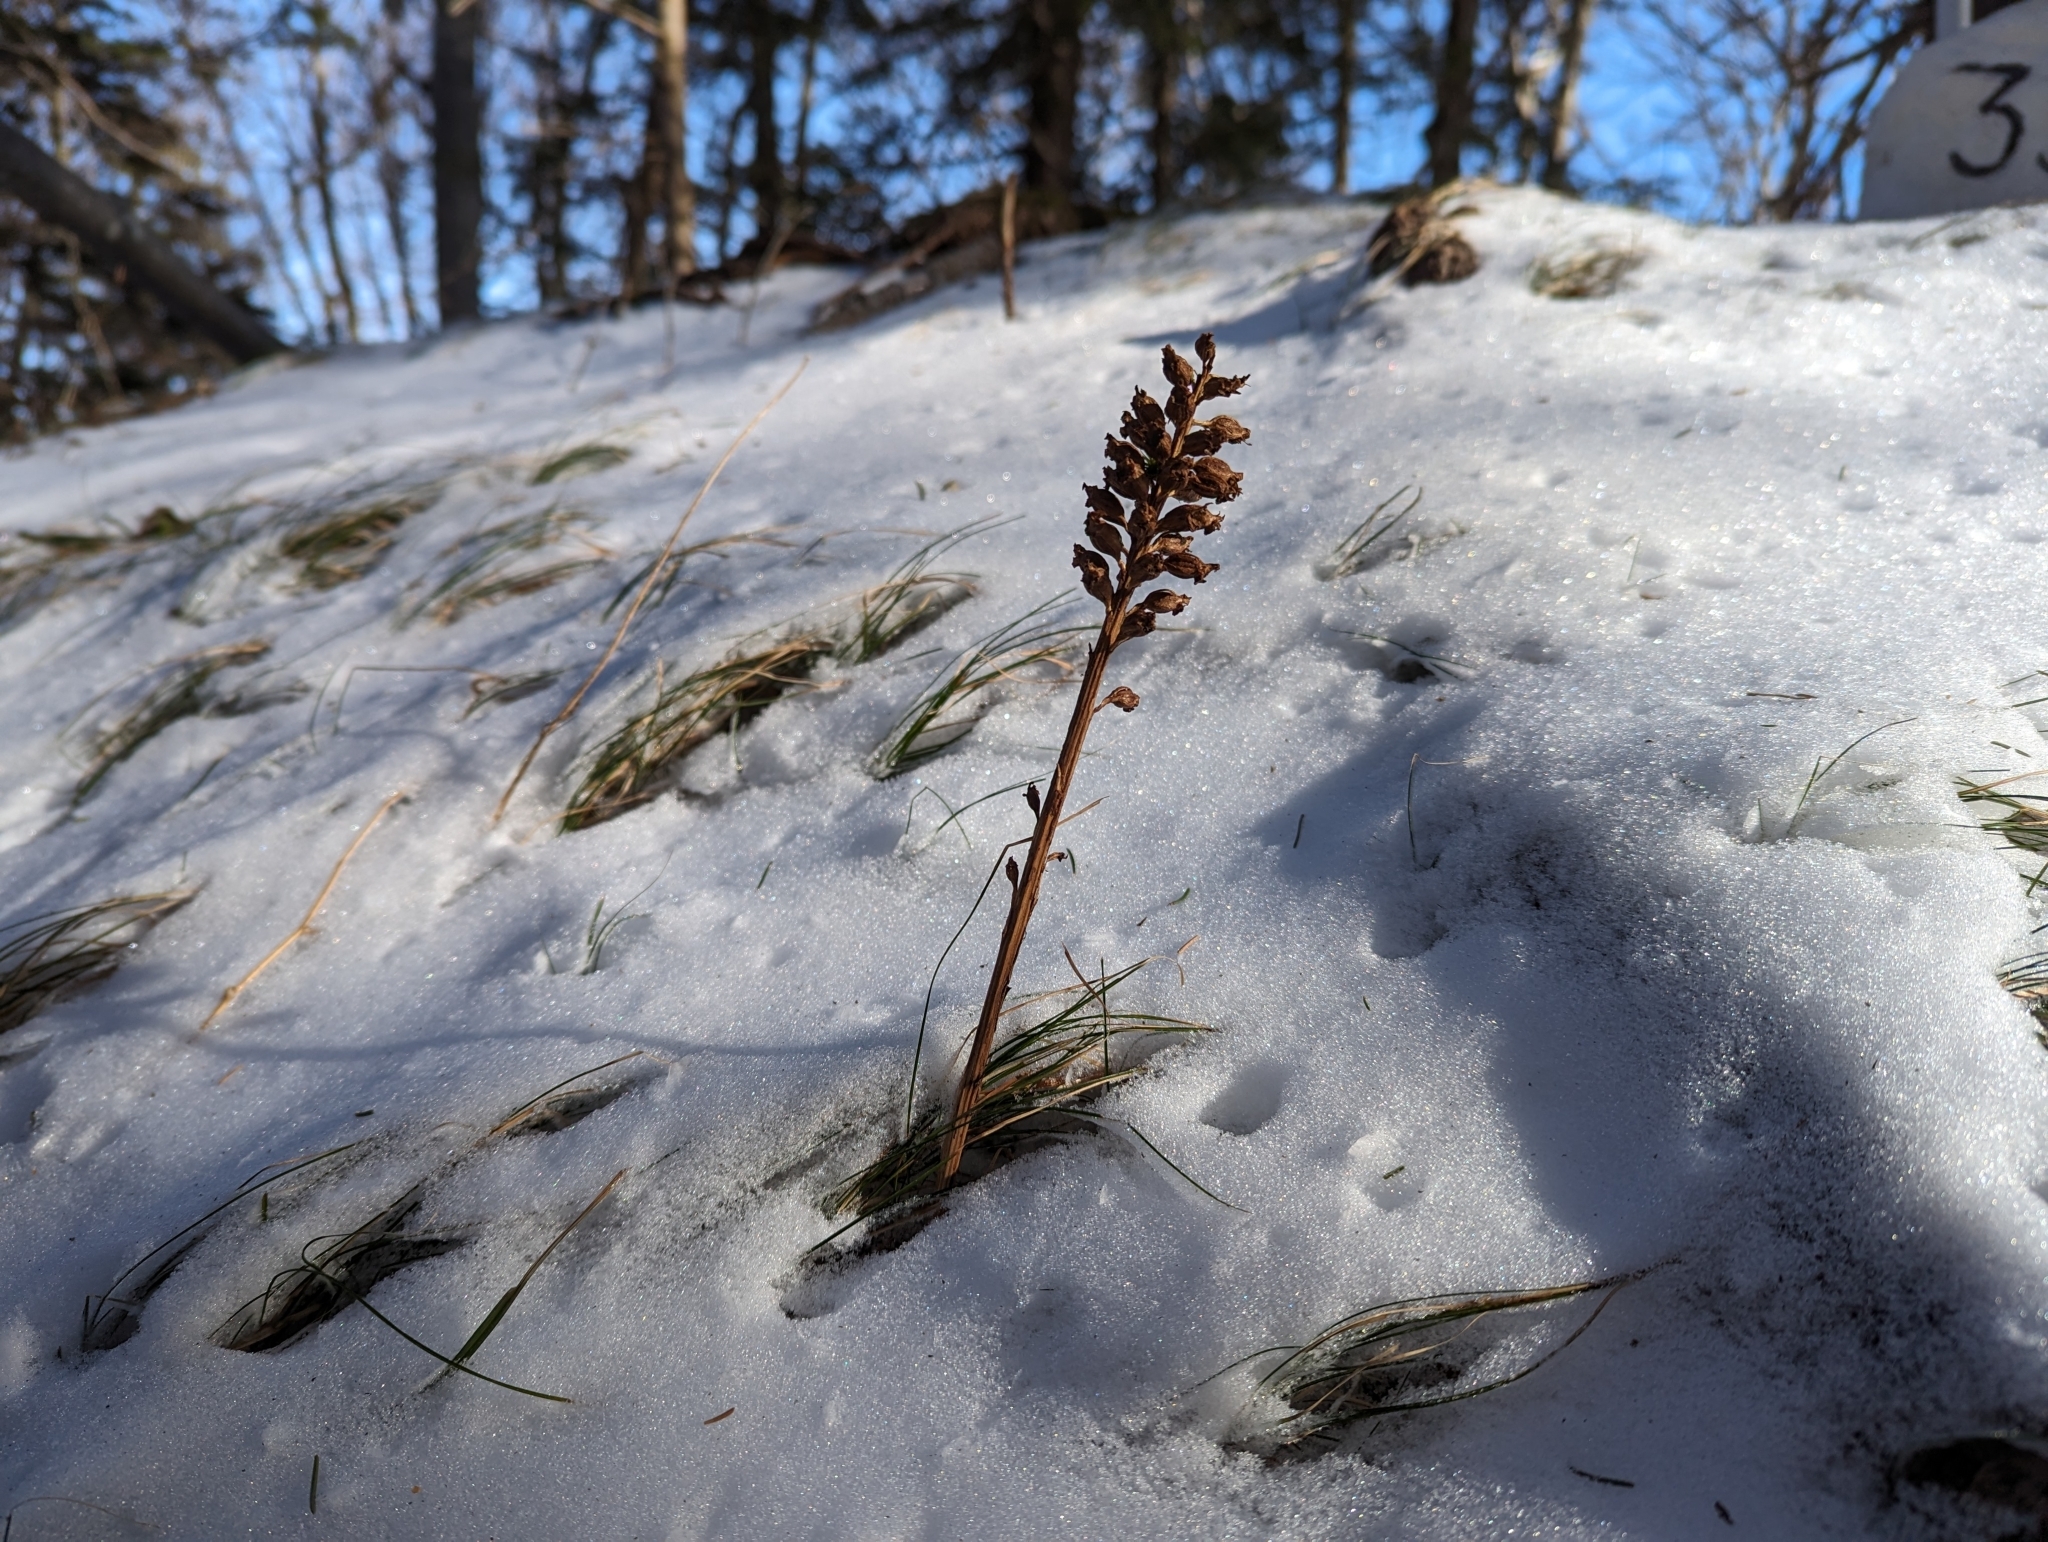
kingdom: Plantae
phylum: Tracheophyta
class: Liliopsida
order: Asparagales
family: Orchidaceae
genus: Neottia
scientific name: Neottia nidus-avis
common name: Bird's-nest orchid
